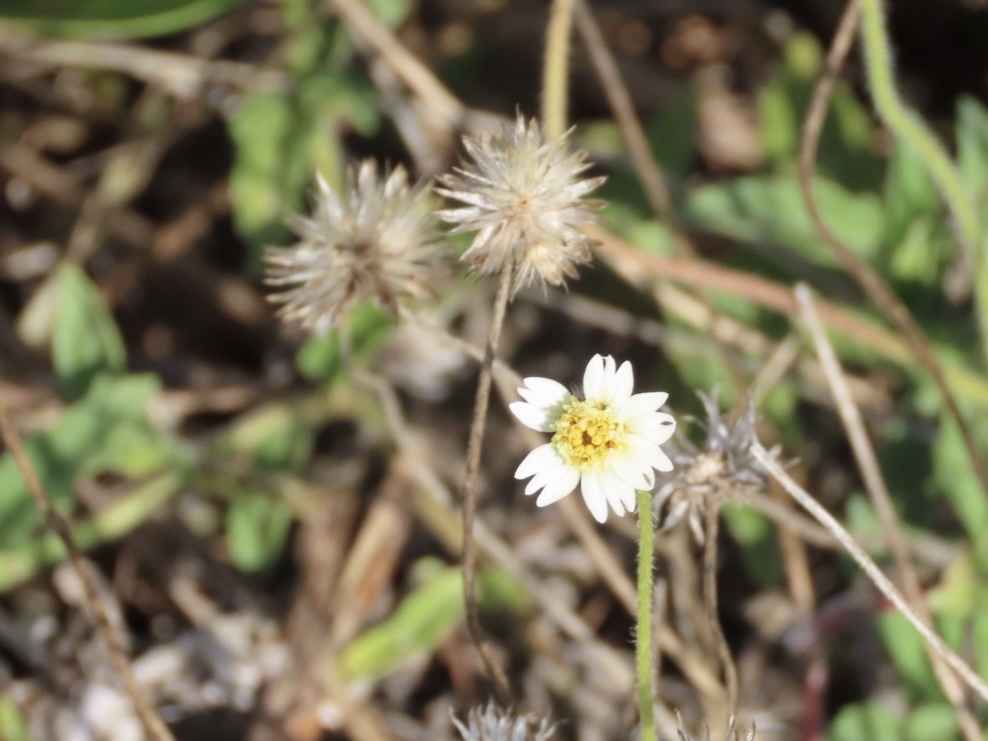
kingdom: Plantae
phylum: Tracheophyta
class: Magnoliopsida
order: Asterales
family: Asteraceae
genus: Tridax
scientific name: Tridax procumbens
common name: Coatbuttons
